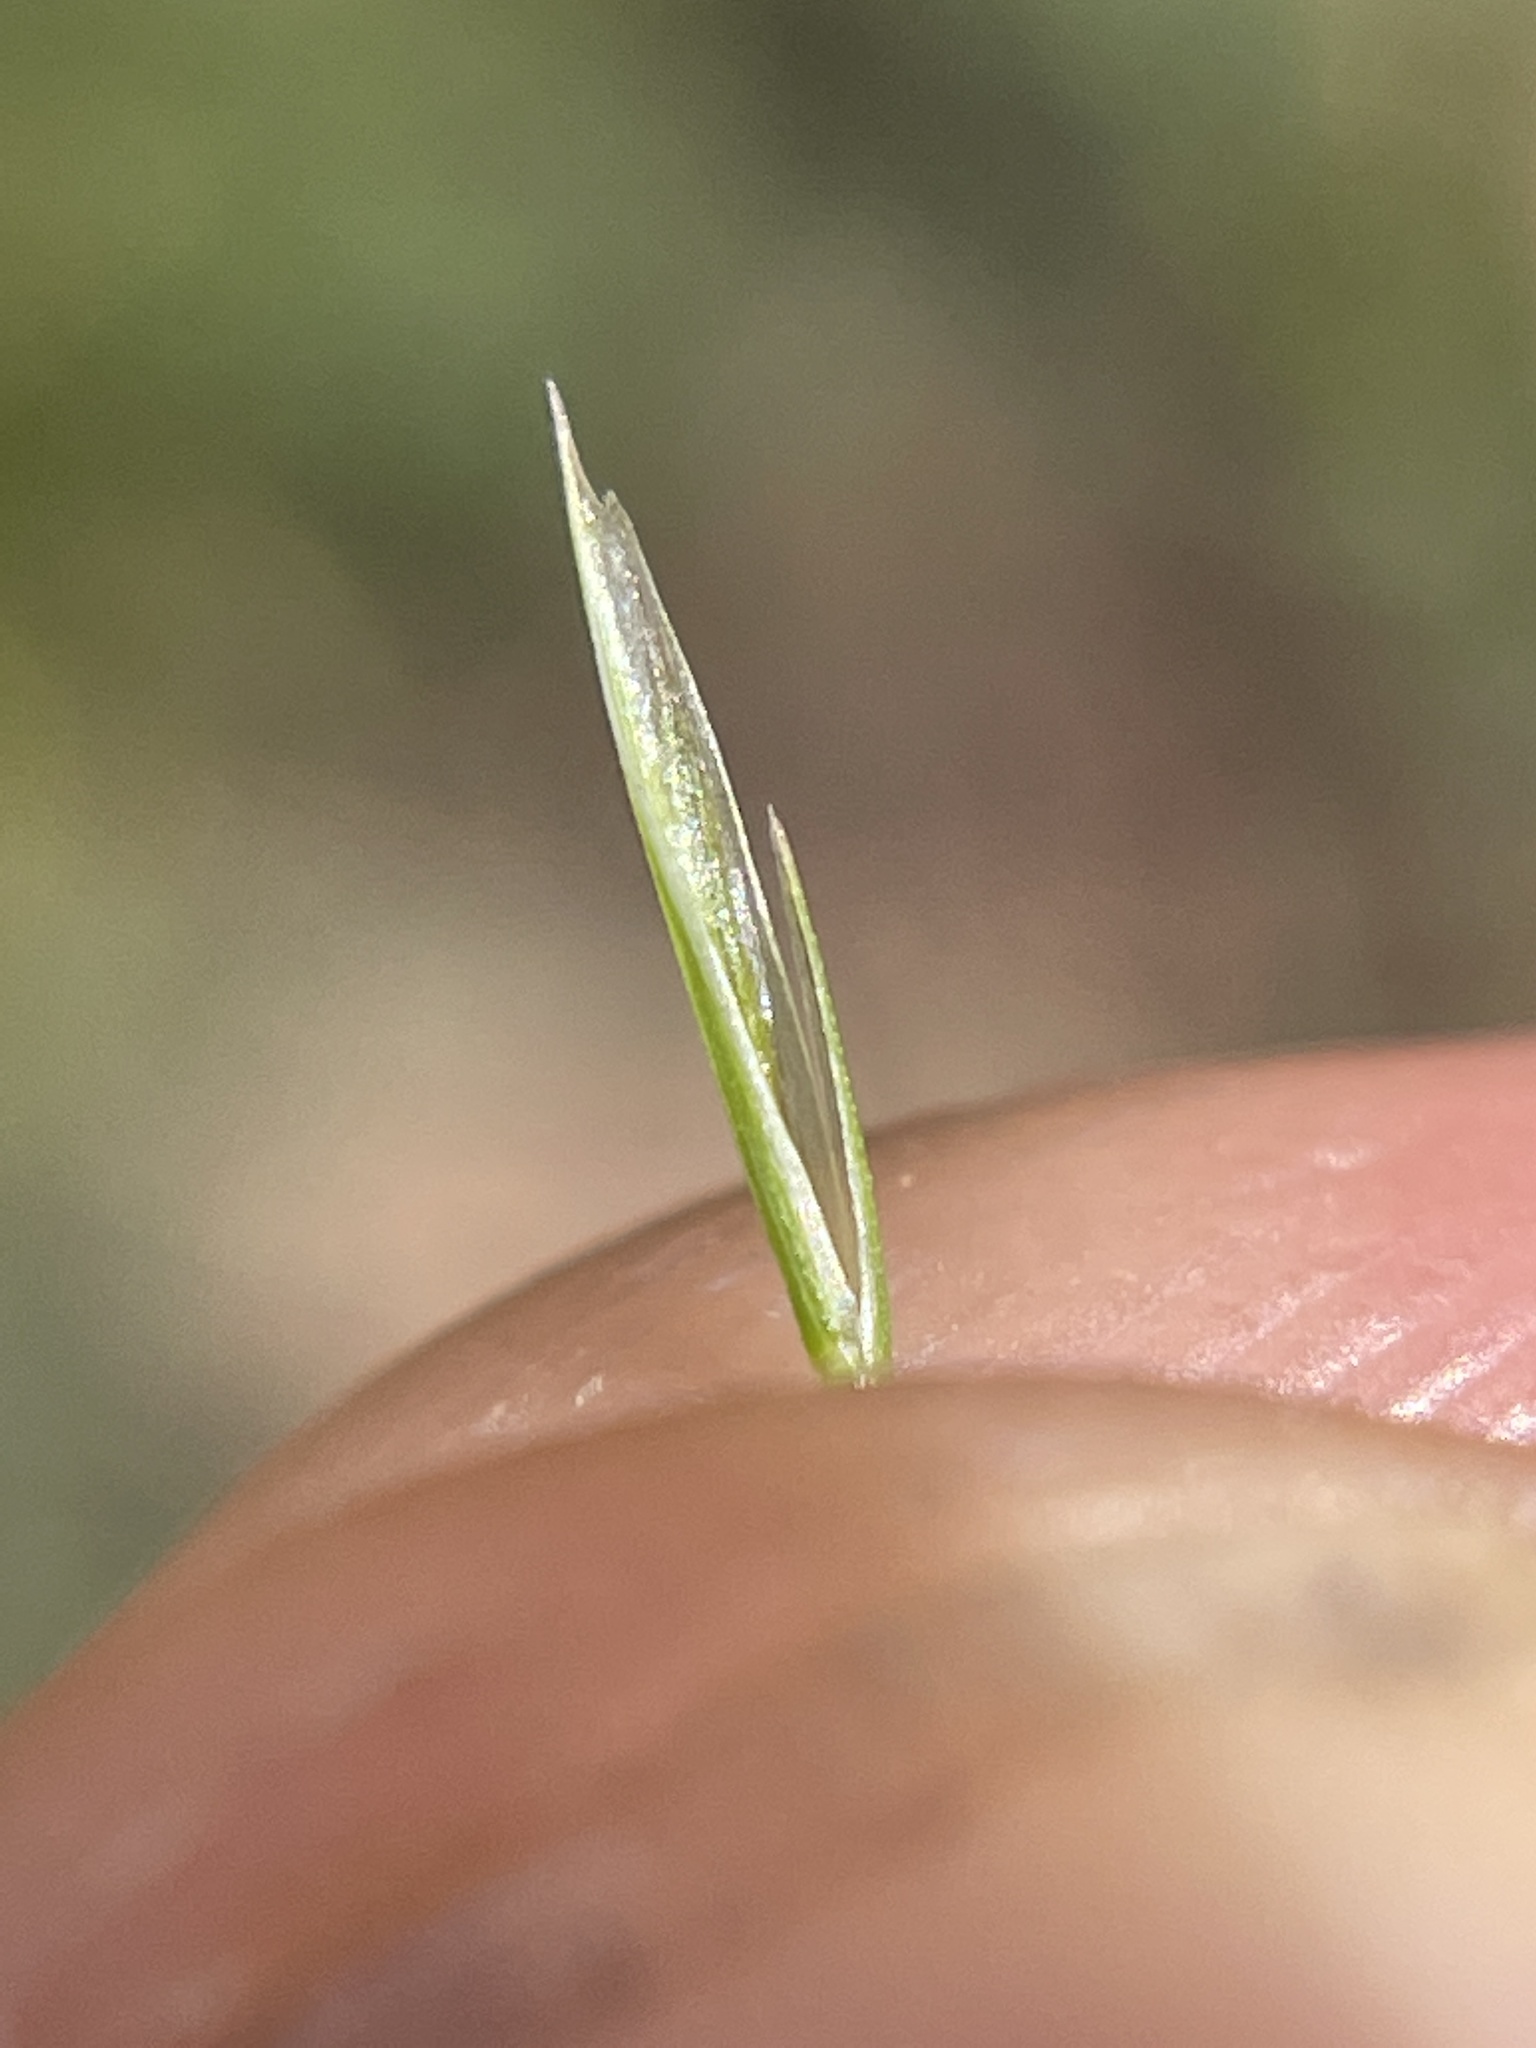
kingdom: Plantae
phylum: Tracheophyta
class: Liliopsida
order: Poales
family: Poaceae
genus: Festuca
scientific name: Festuca bromoides
